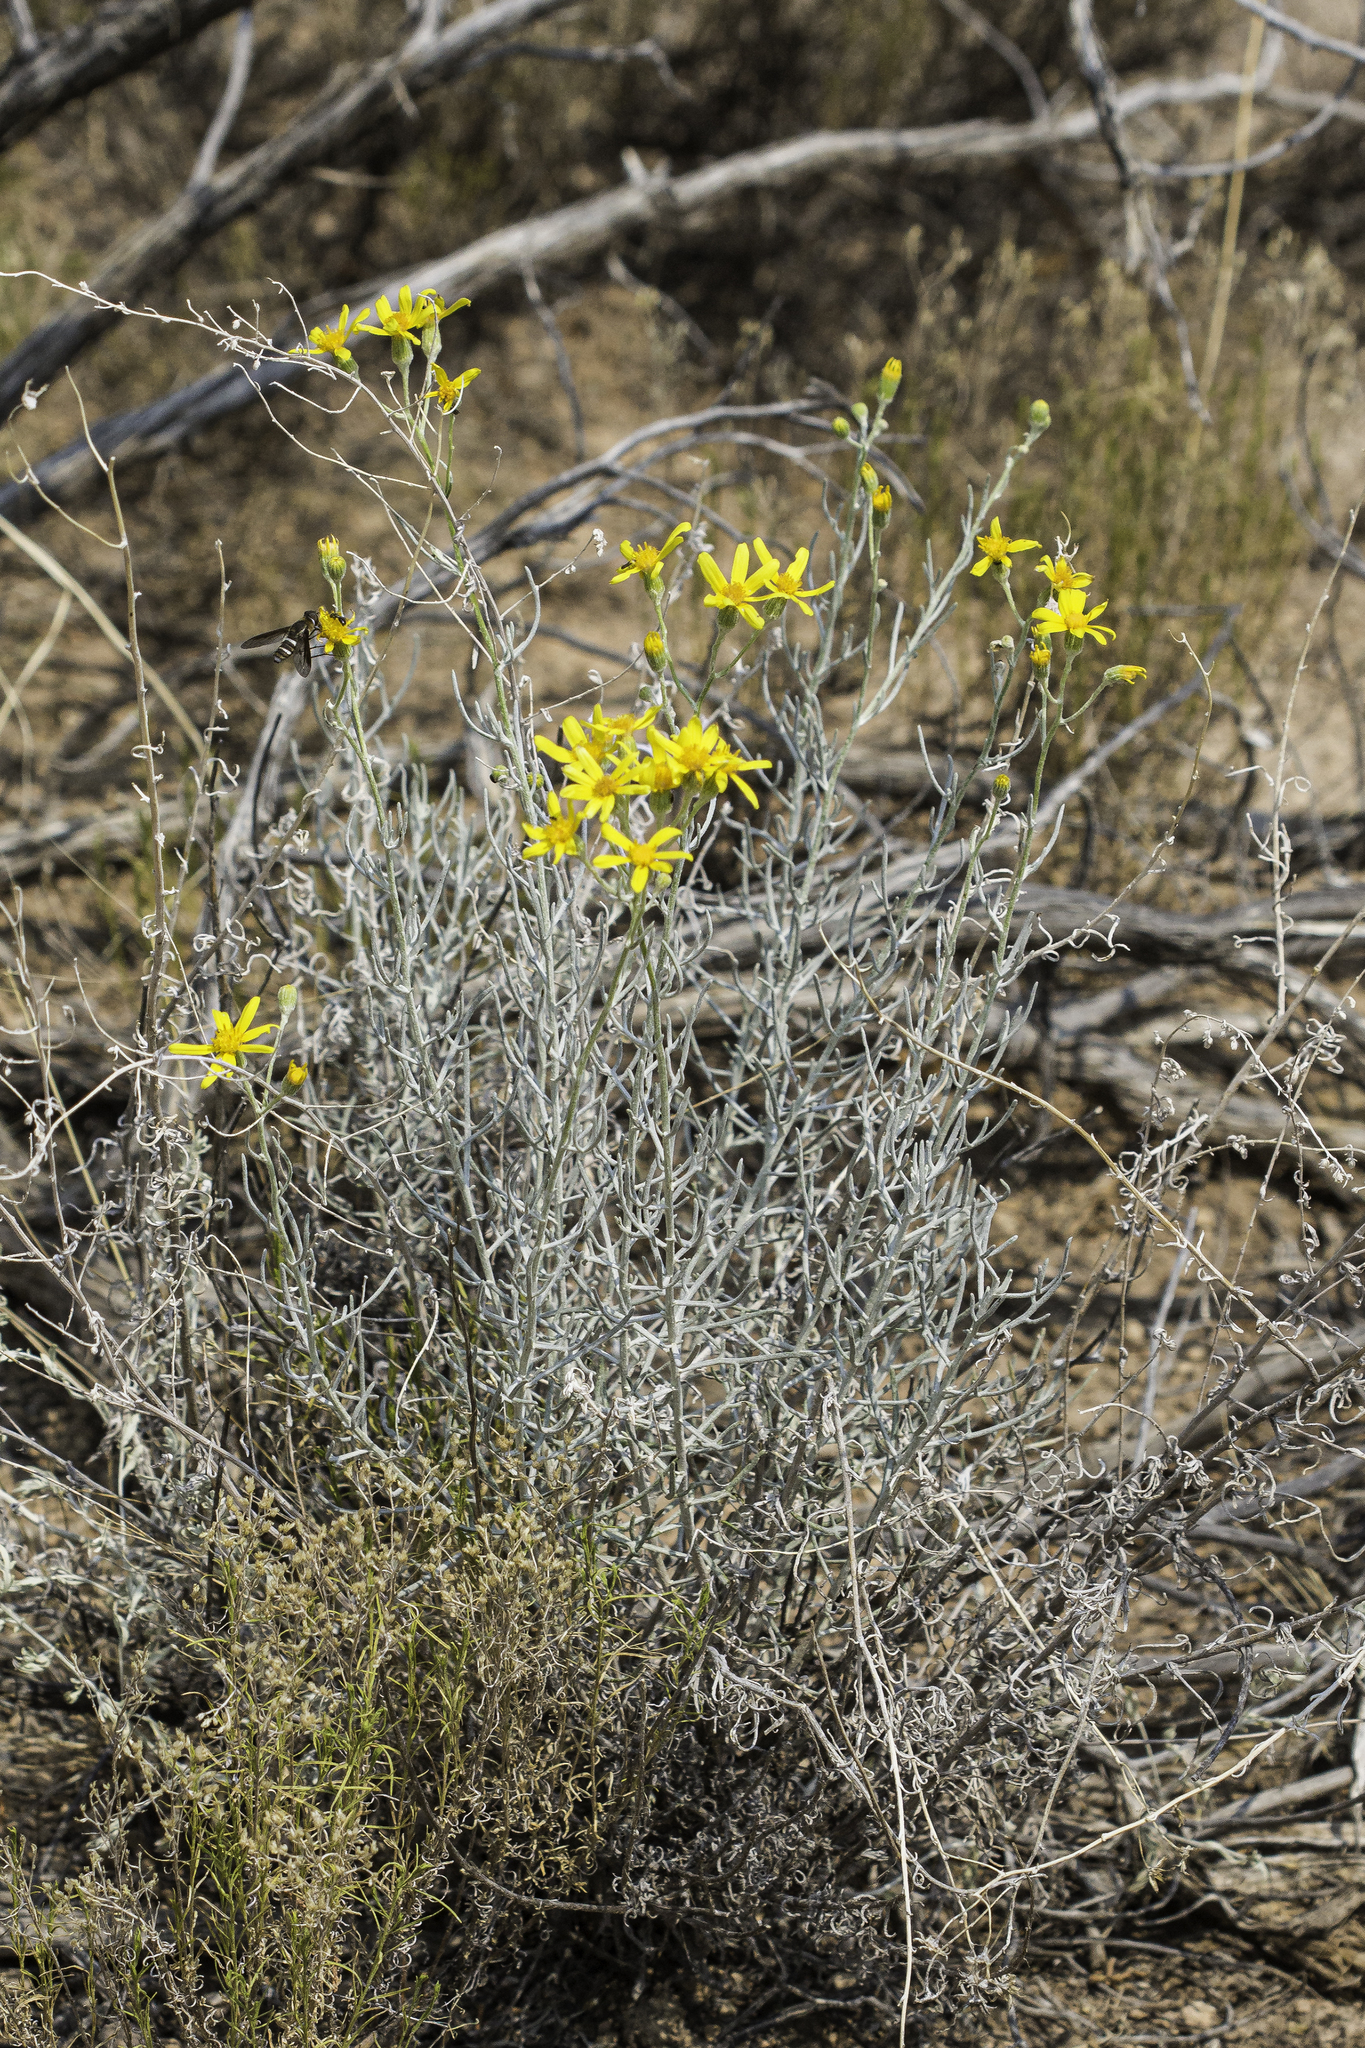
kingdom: Plantae
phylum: Tracheophyta
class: Magnoliopsida
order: Asterales
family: Asteraceae
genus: Senecio
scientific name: Senecio flaccidus
